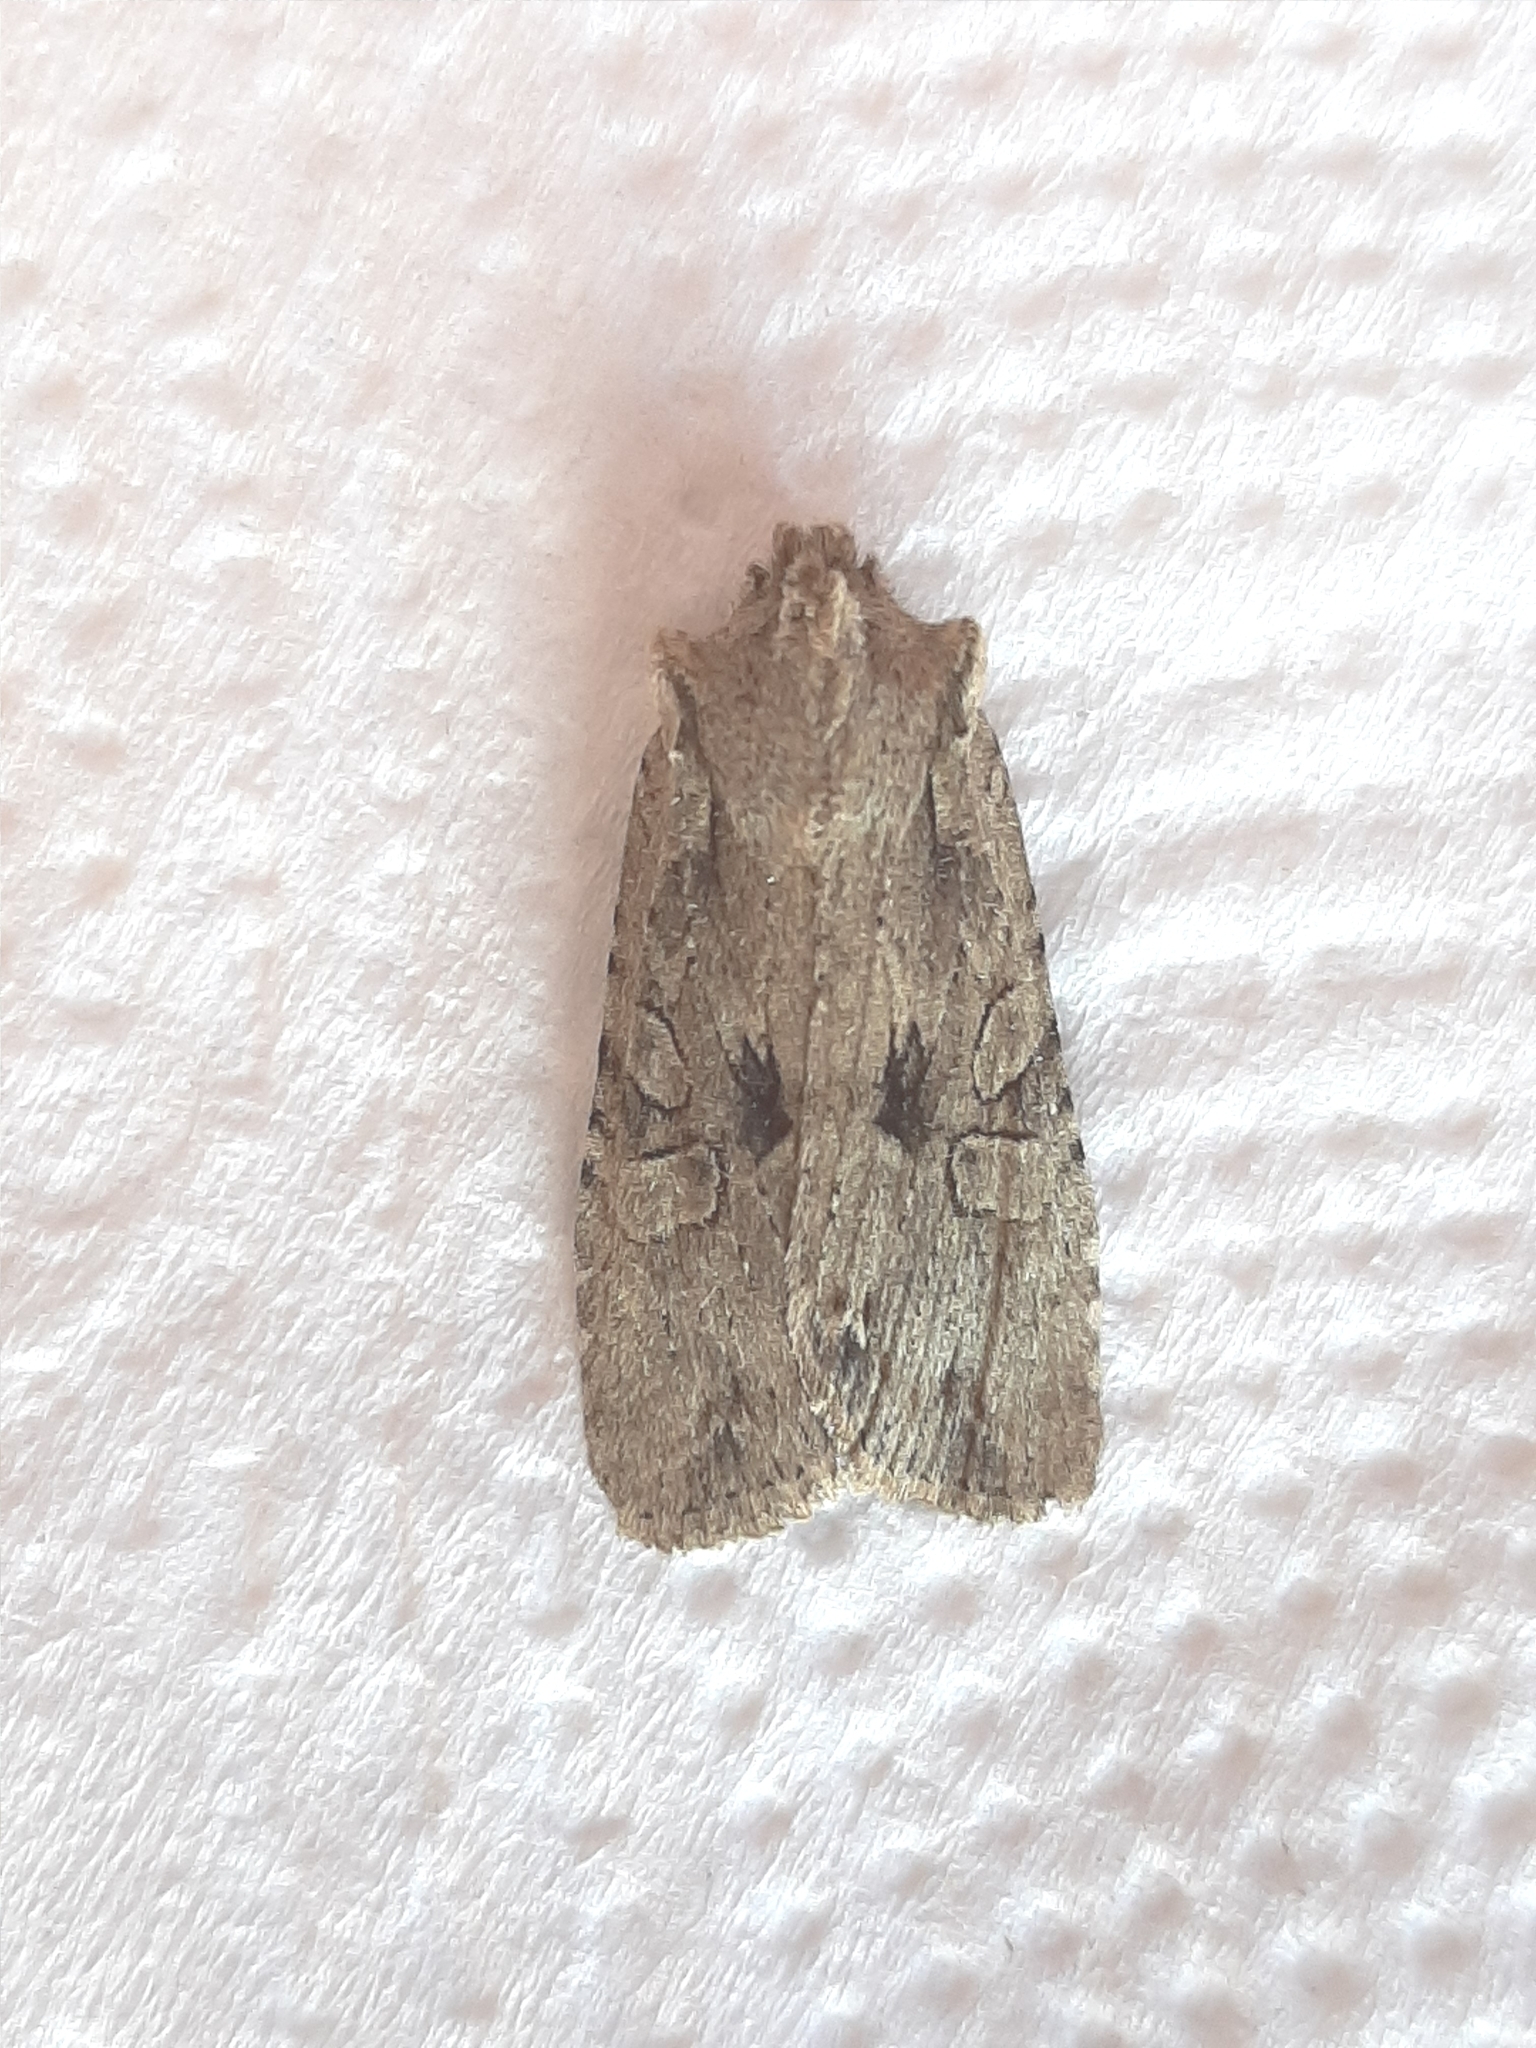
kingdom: Animalia
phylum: Arthropoda
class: Insecta
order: Lepidoptera
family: Noctuidae
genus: Lithophane
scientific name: Lithophane disposita
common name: Dashed gray pinion moth
